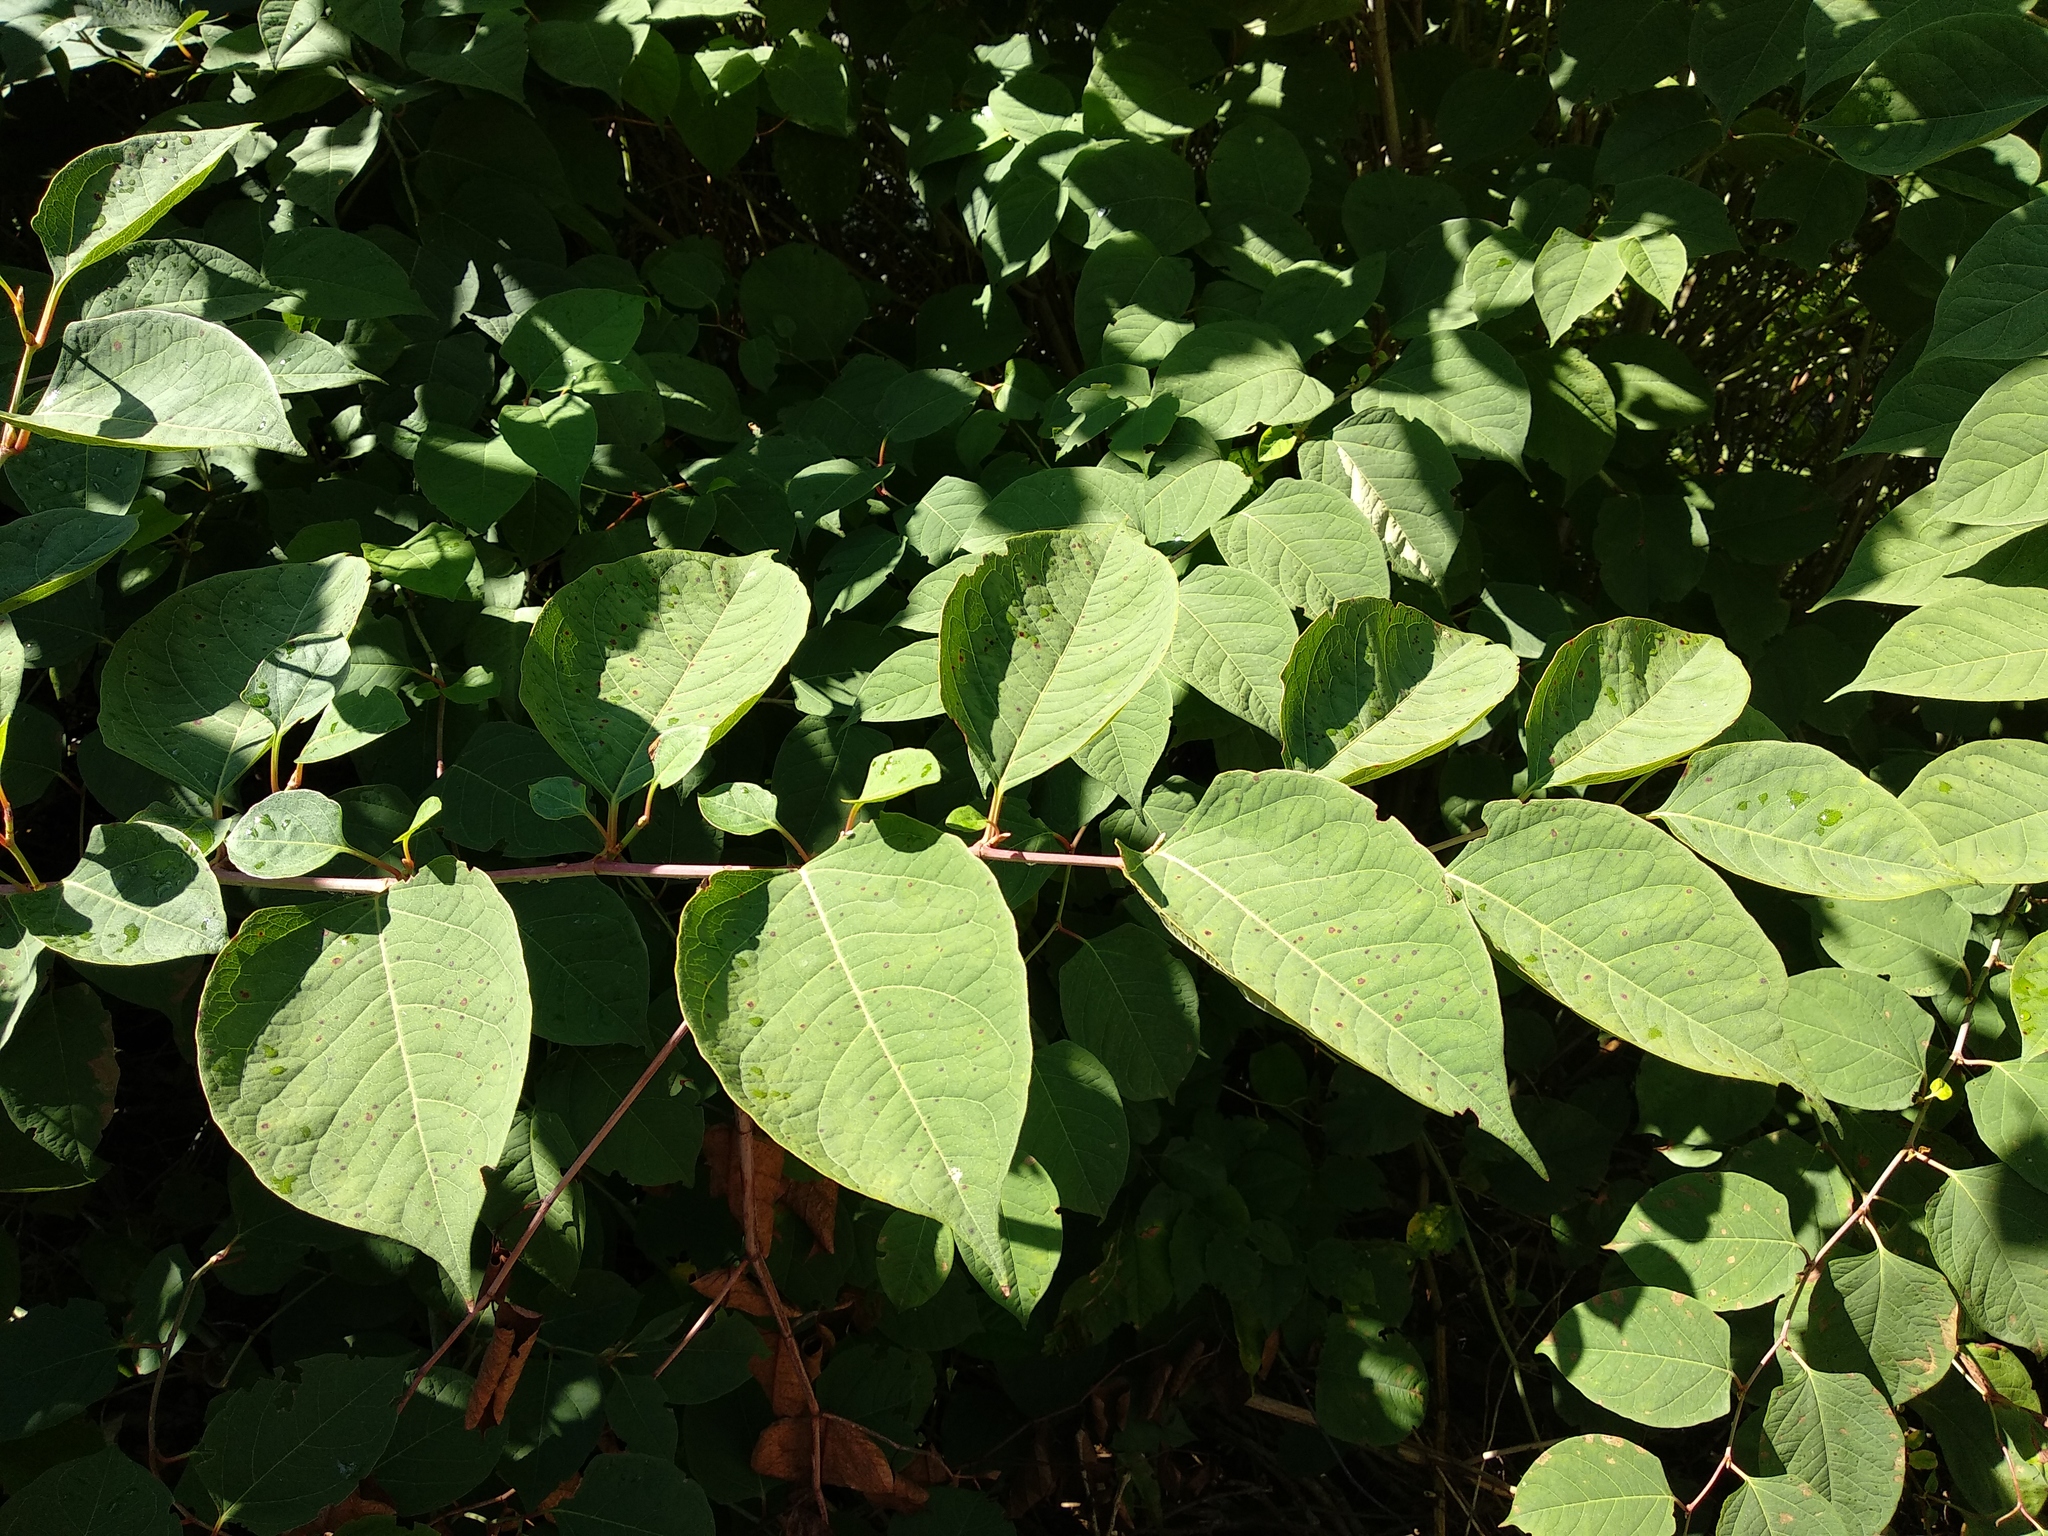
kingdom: Plantae
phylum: Tracheophyta
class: Magnoliopsida
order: Caryophyllales
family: Polygonaceae
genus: Reynoutria
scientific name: Reynoutria japonica
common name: Japanese knotweed
